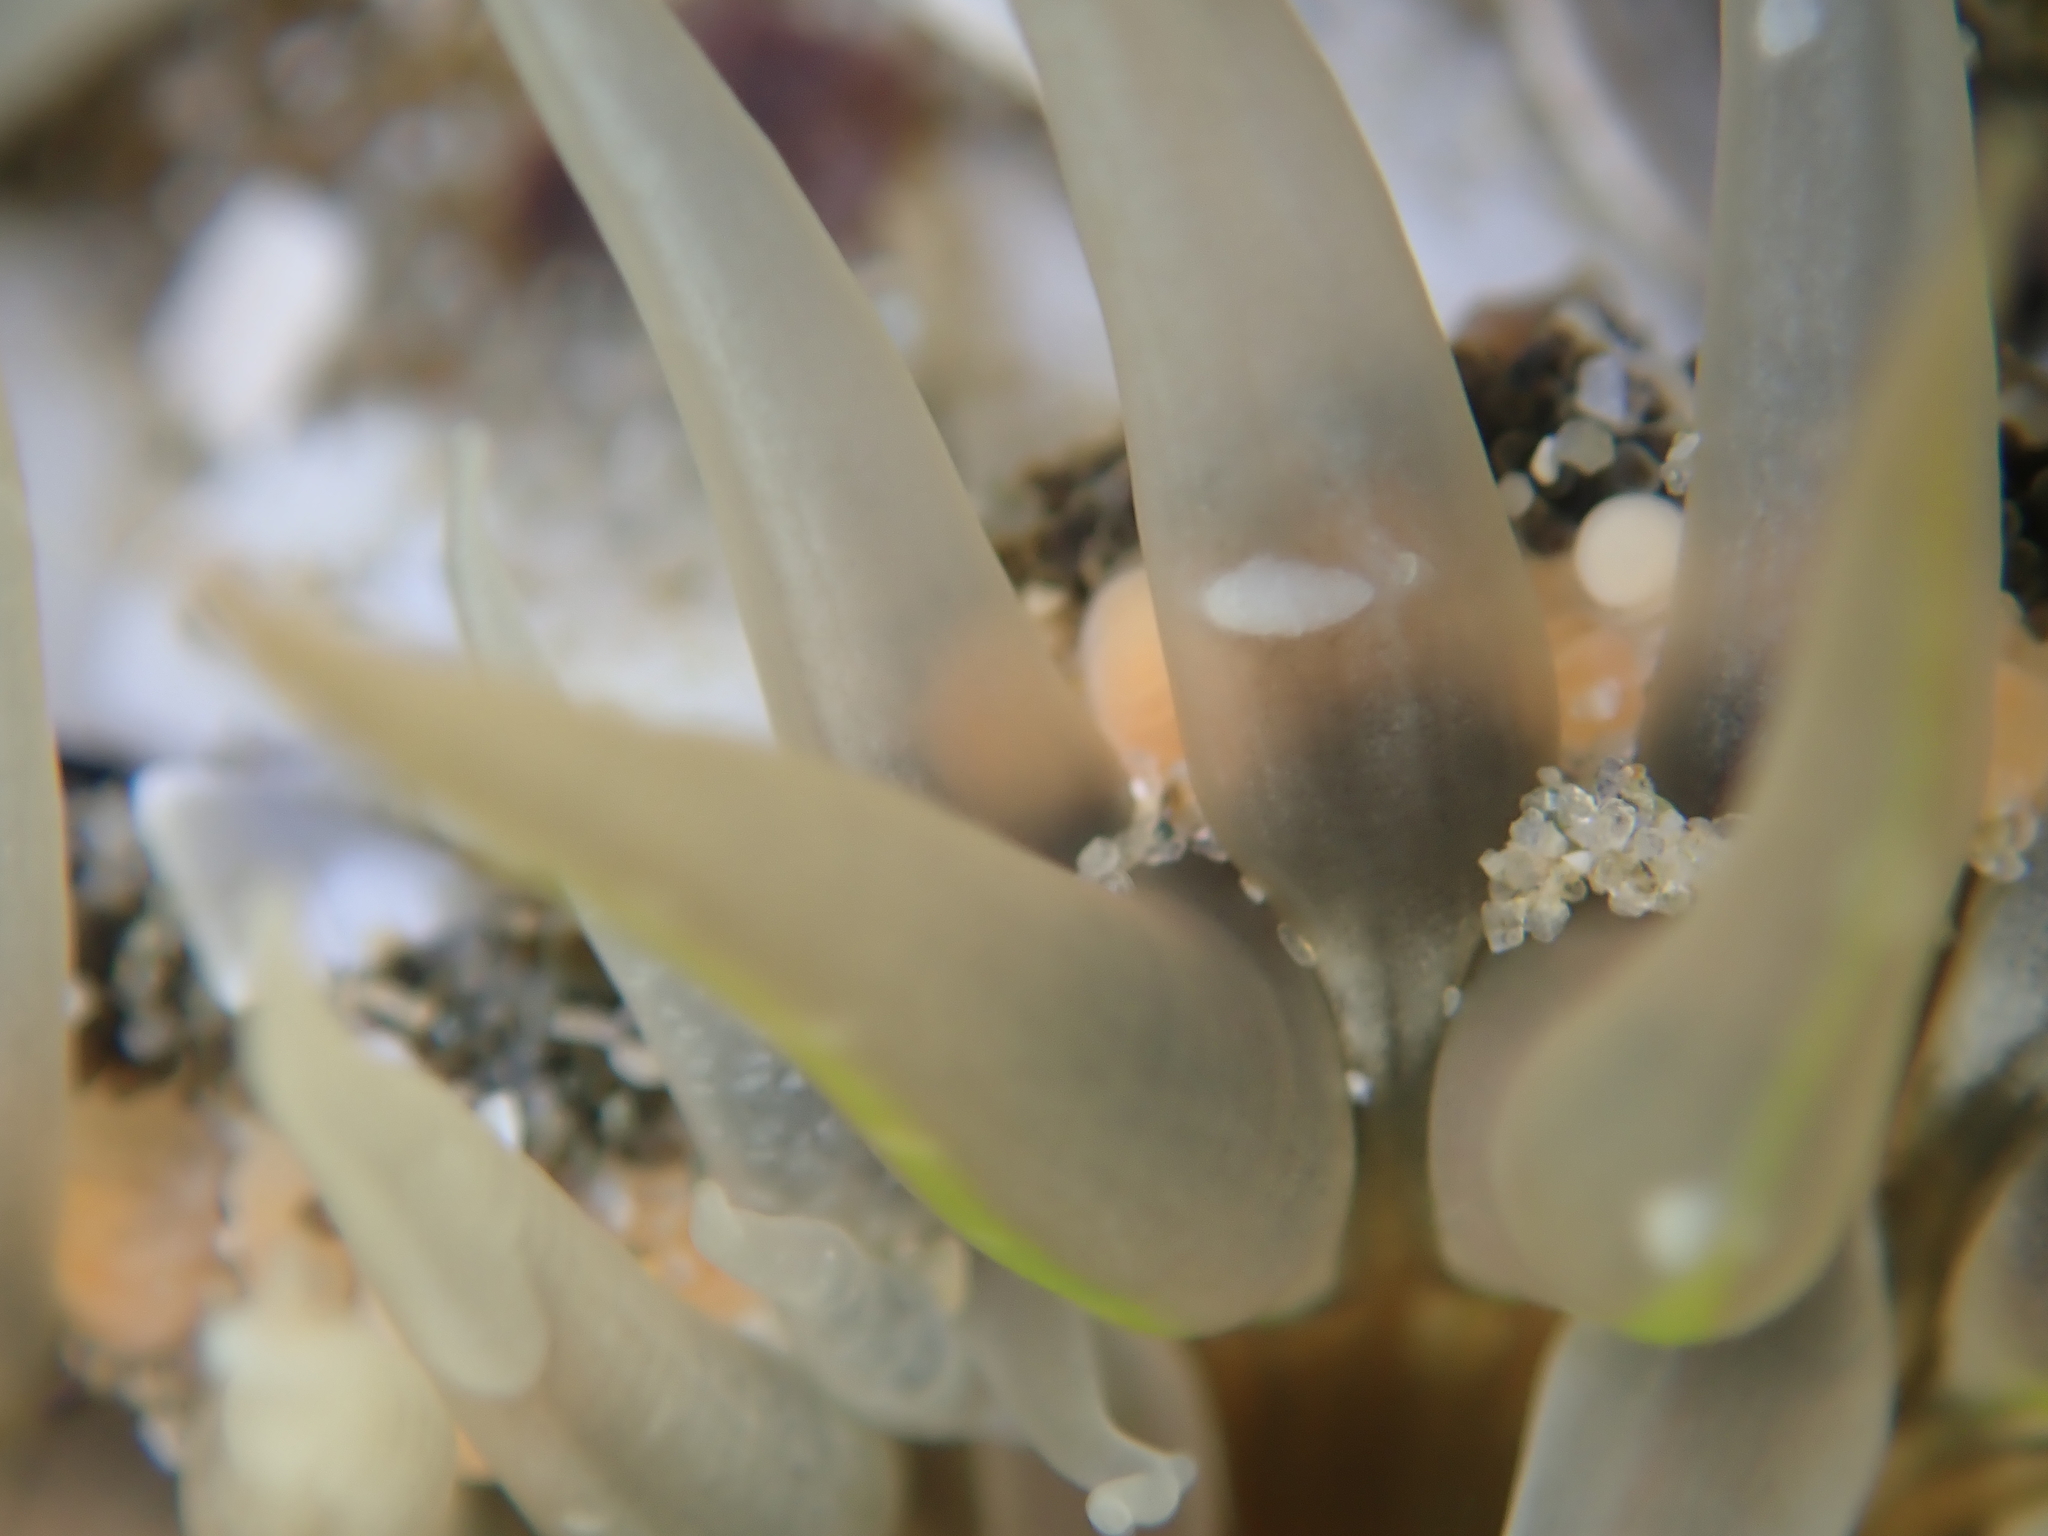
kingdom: Animalia
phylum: Cnidaria
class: Anthozoa
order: Actiniaria
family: Actiniidae
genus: Oulactis
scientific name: Oulactis muscosa
